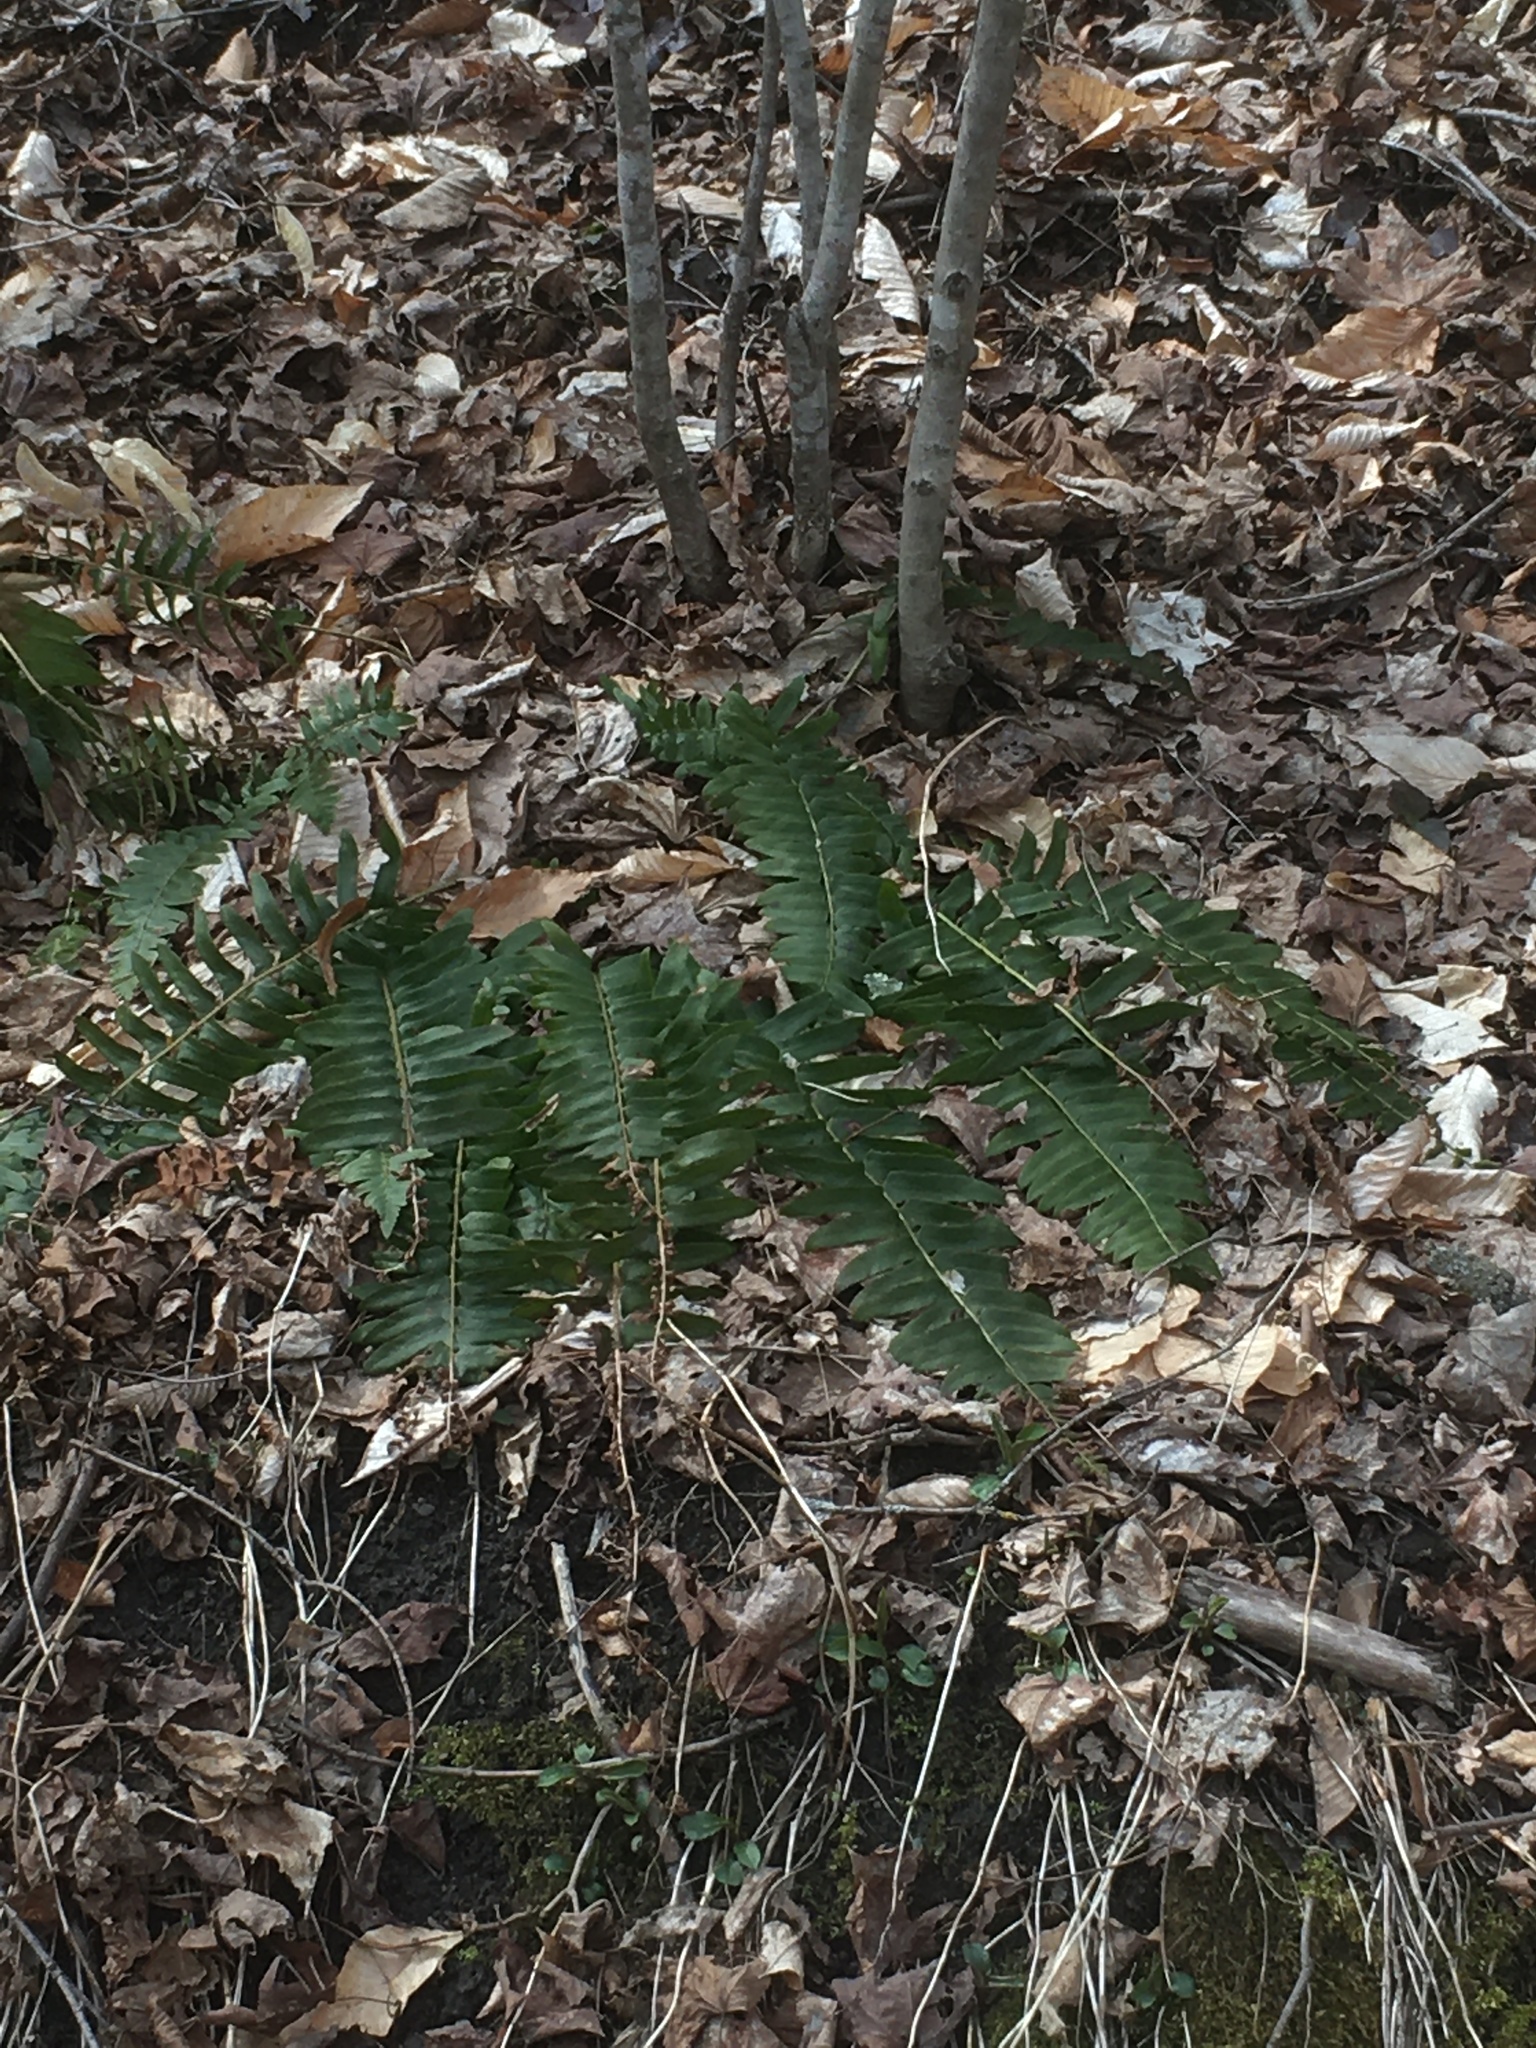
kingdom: Plantae
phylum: Tracheophyta
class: Polypodiopsida
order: Polypodiales
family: Dryopteridaceae
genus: Polystichum
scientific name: Polystichum acrostichoides
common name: Christmas fern
